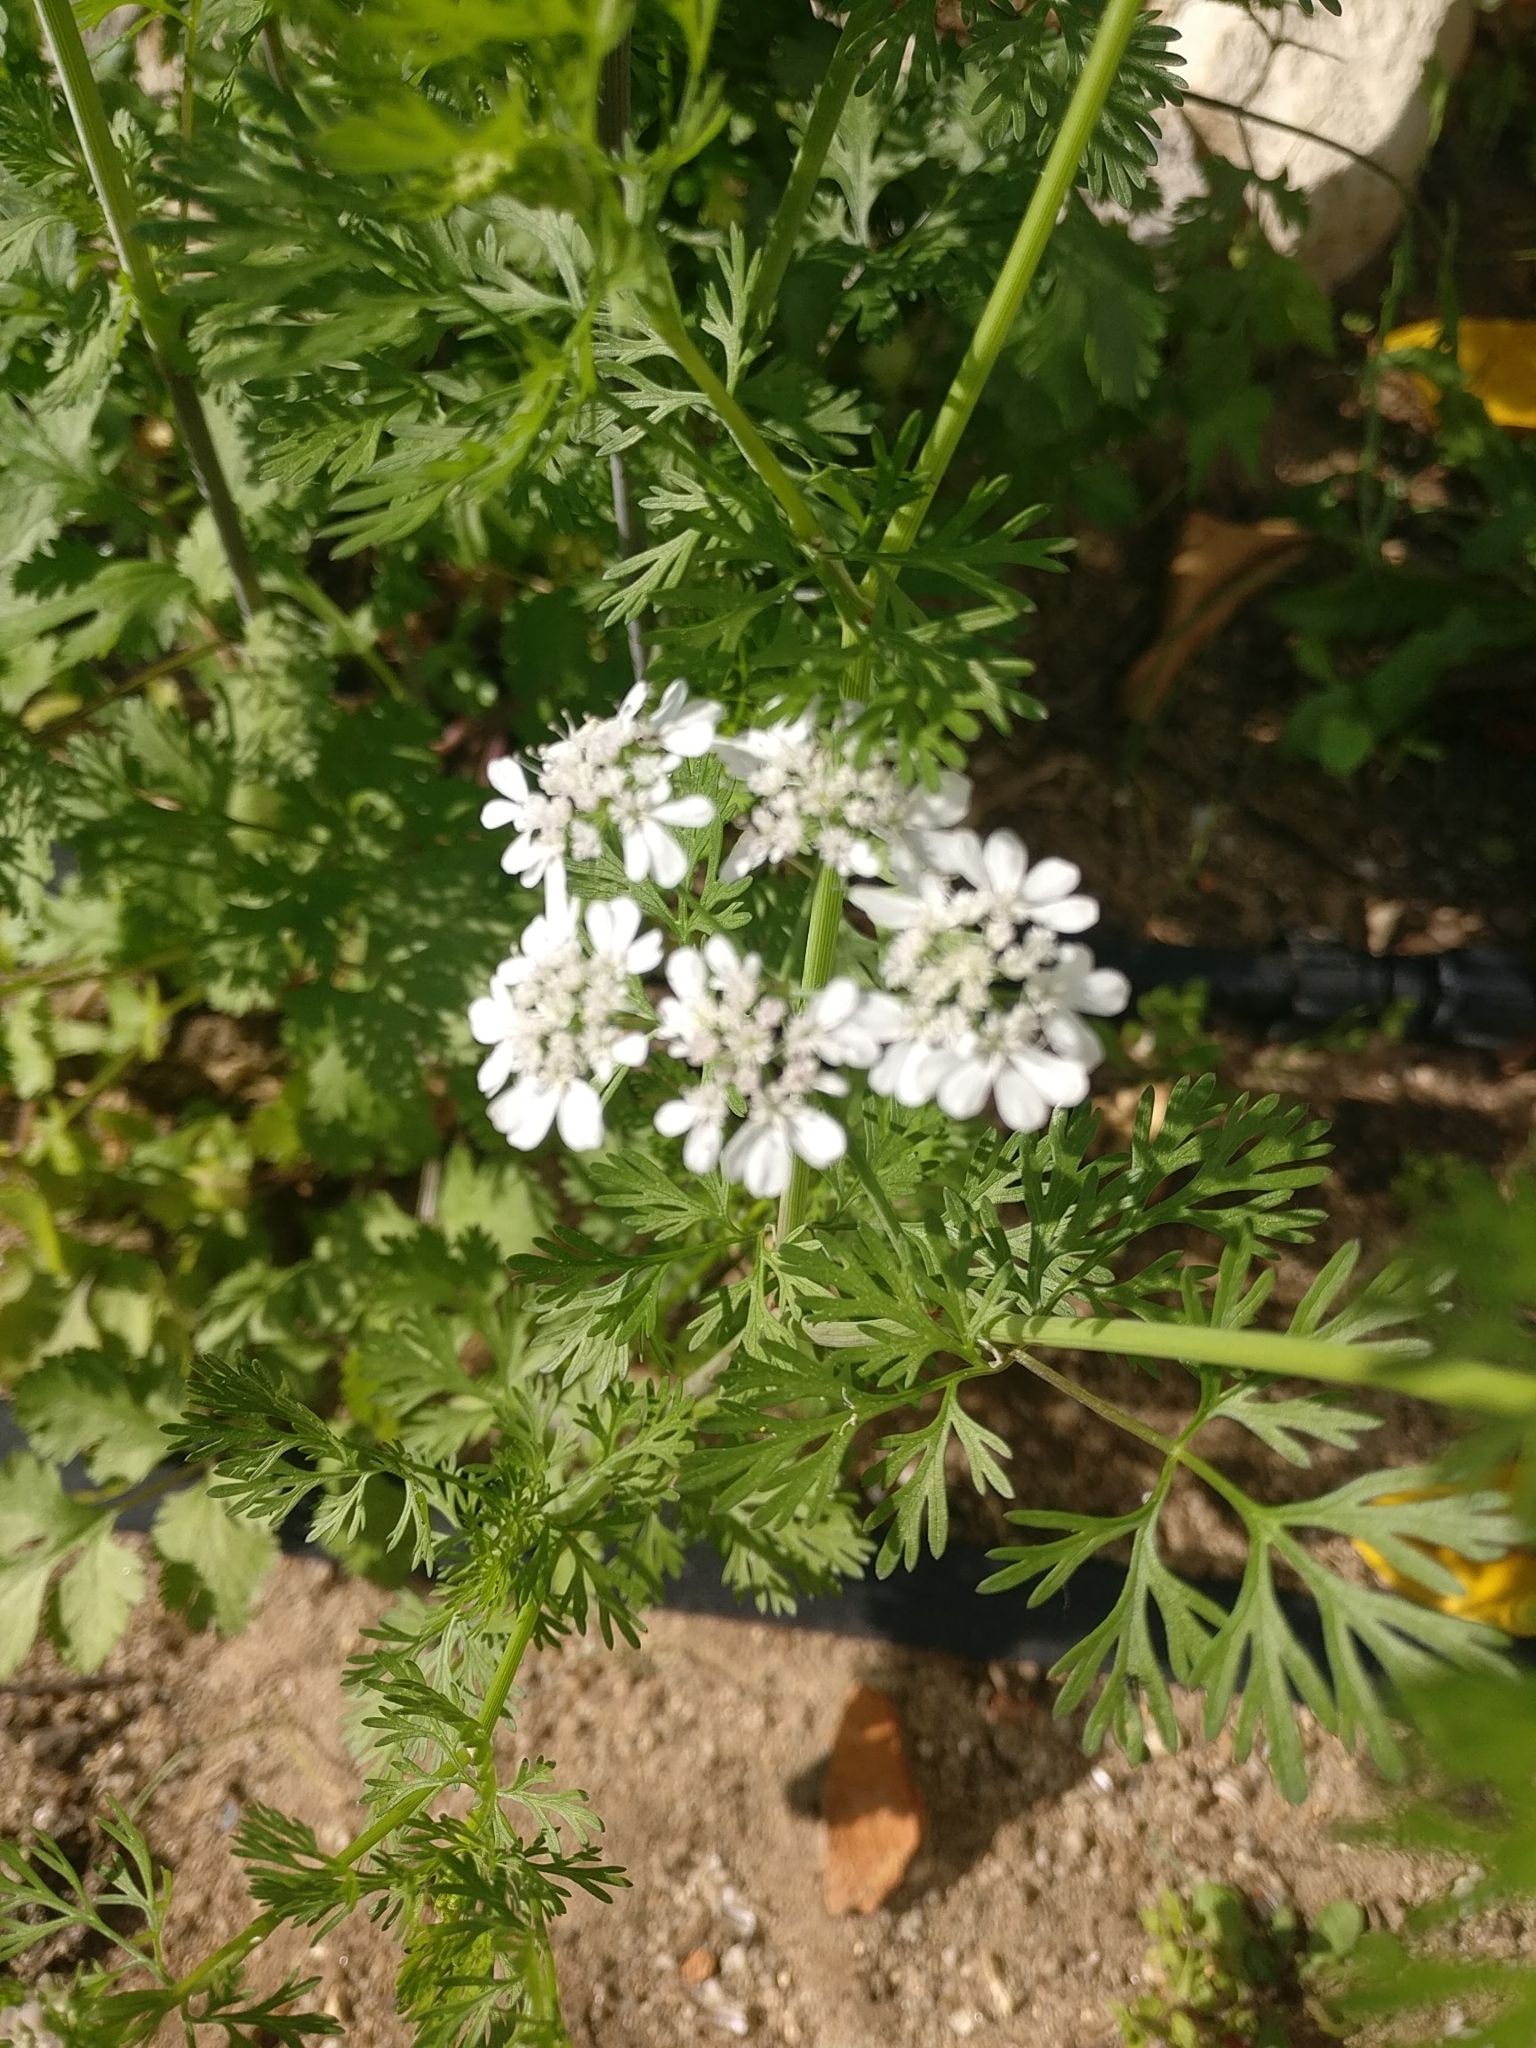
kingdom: Plantae
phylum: Tracheophyta
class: Magnoliopsida
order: Apiales
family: Apiaceae
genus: Coriandrum
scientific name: Coriandrum sativum
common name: Coriander
